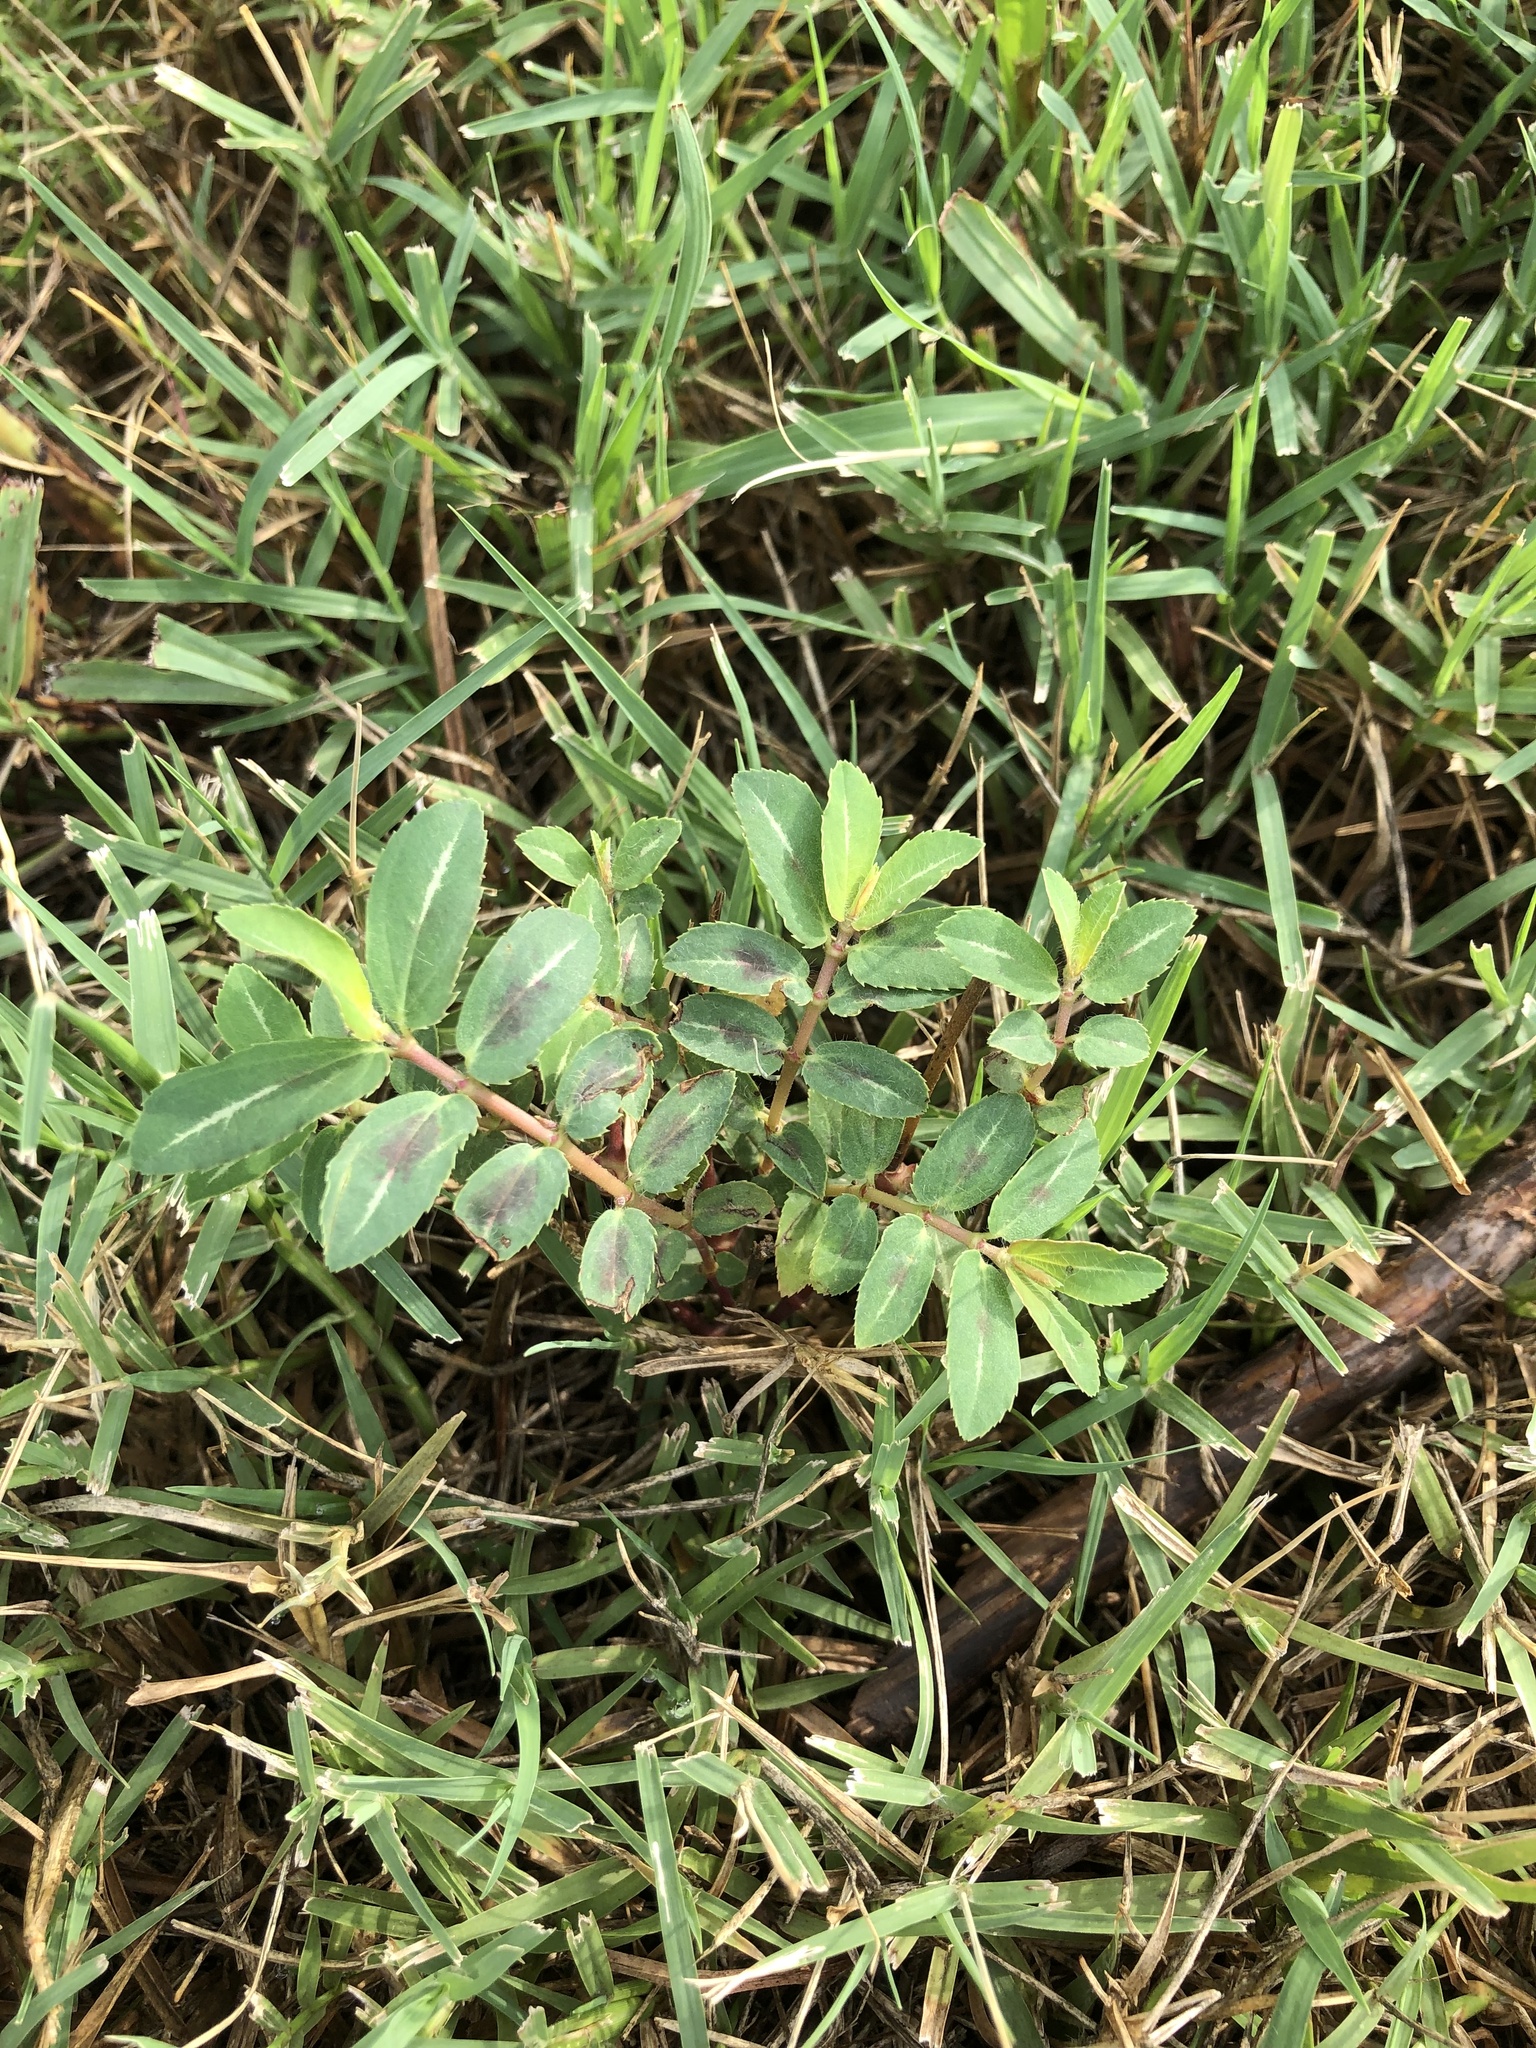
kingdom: Plantae
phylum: Tracheophyta
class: Magnoliopsida
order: Malpighiales
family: Euphorbiaceae
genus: Euphorbia
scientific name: Euphorbia nutans
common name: Eyebane
